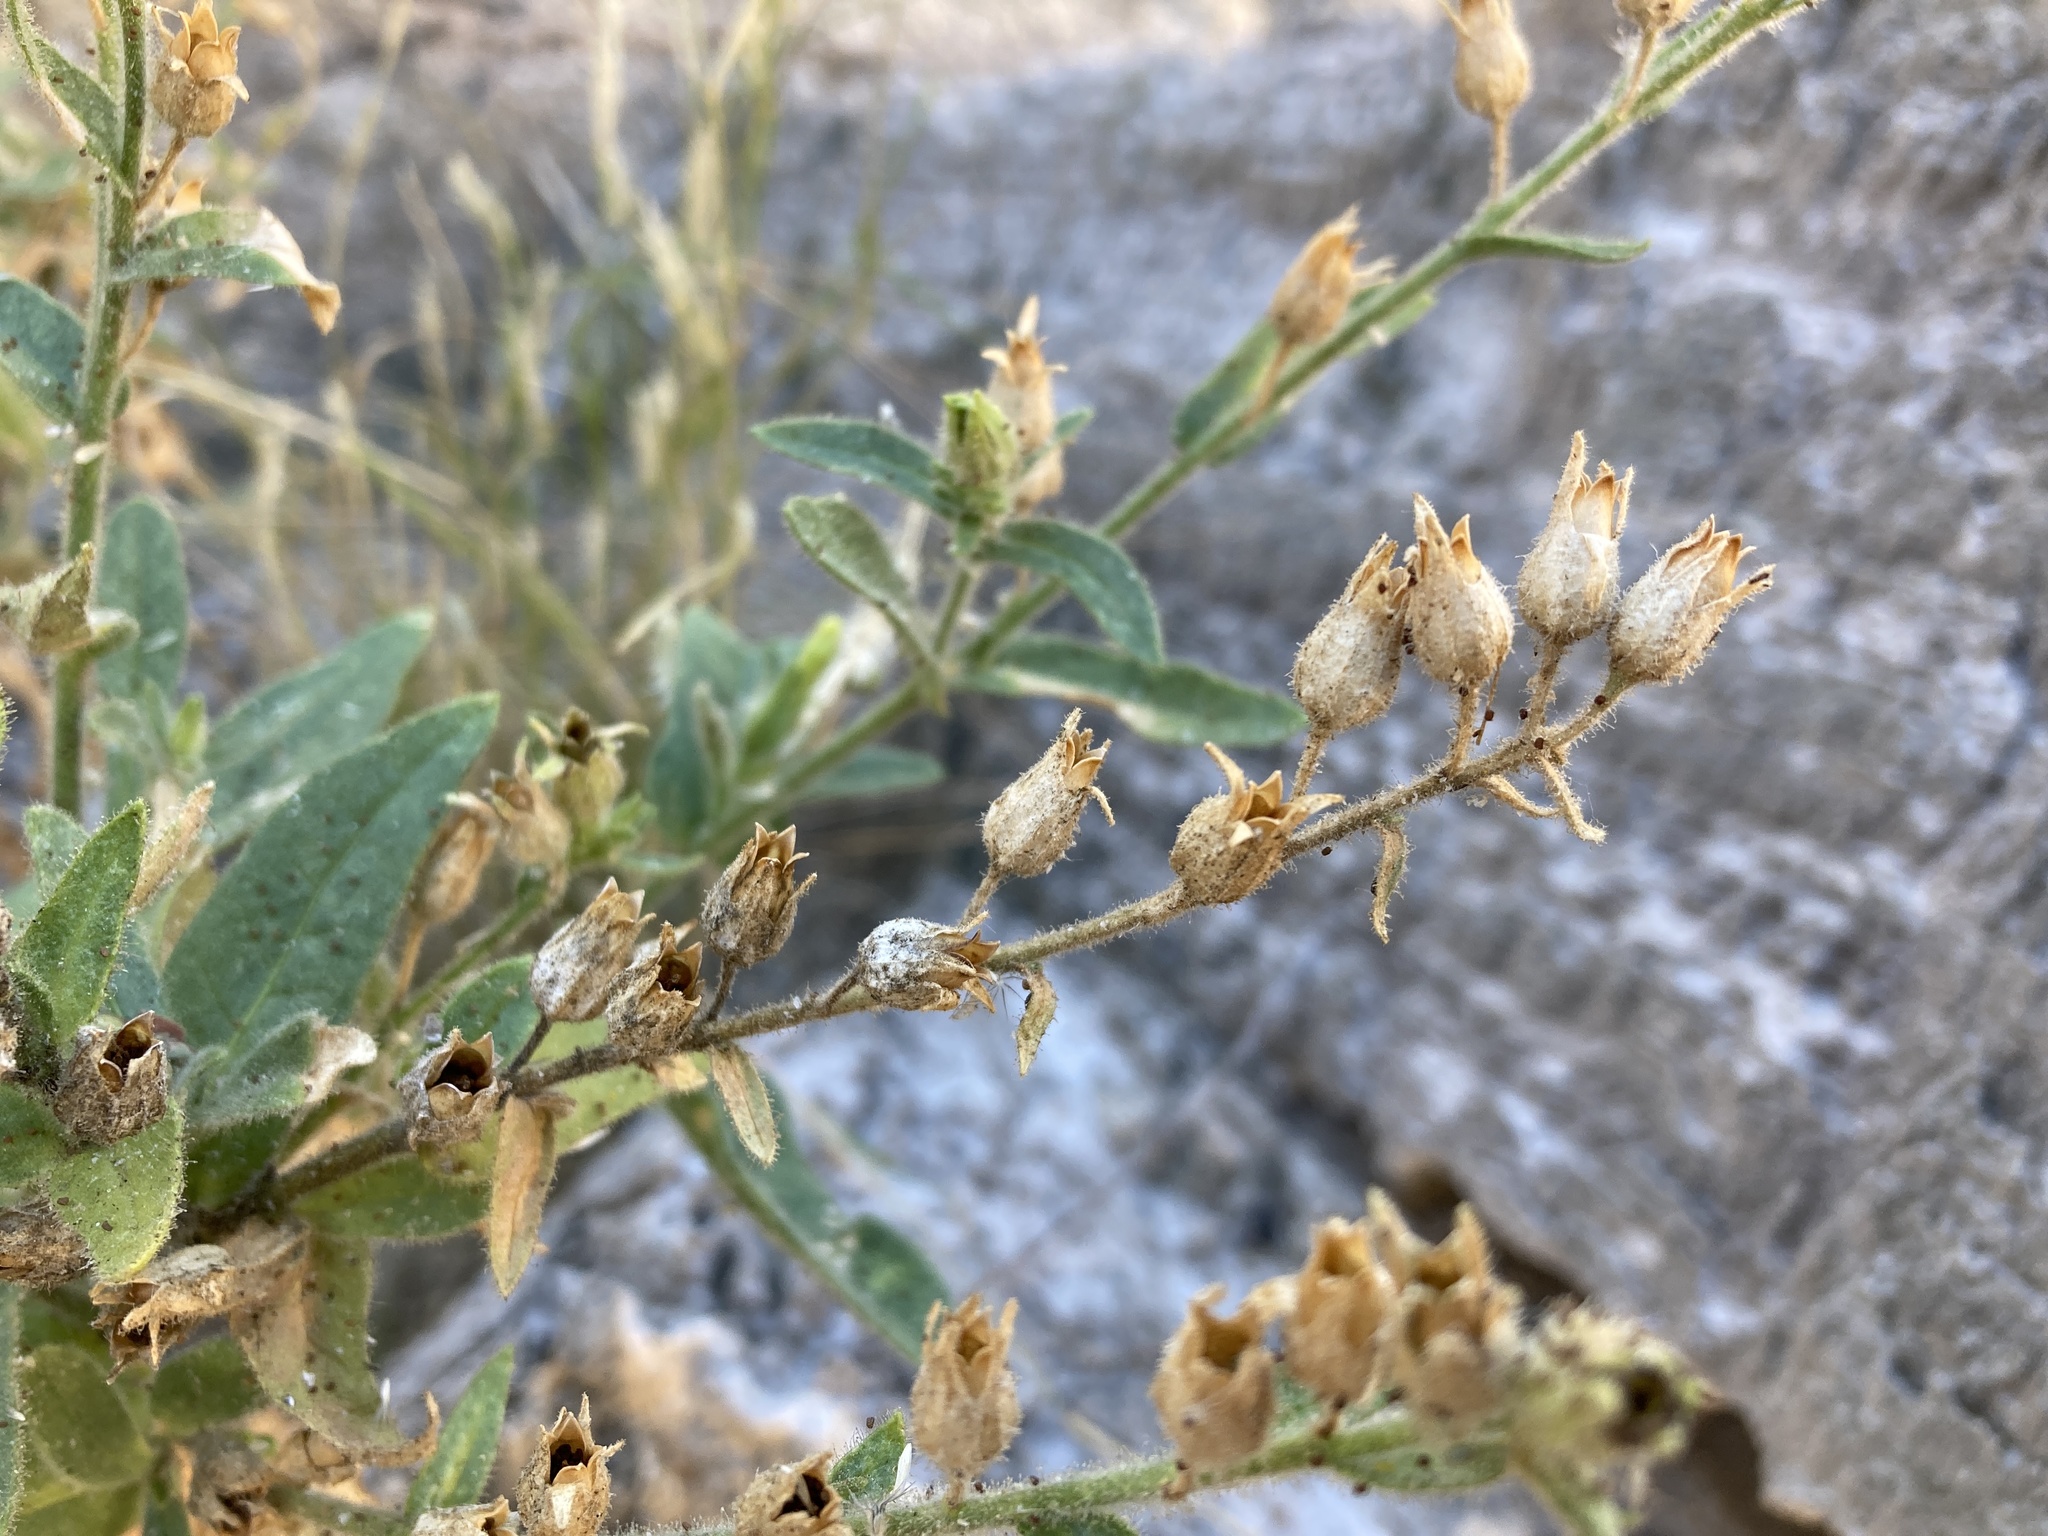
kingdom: Plantae
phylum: Tracheophyta
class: Magnoliopsida
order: Solanales
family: Solanaceae
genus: Nicotiana
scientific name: Nicotiana obtusifolia
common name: Desert tobacco
